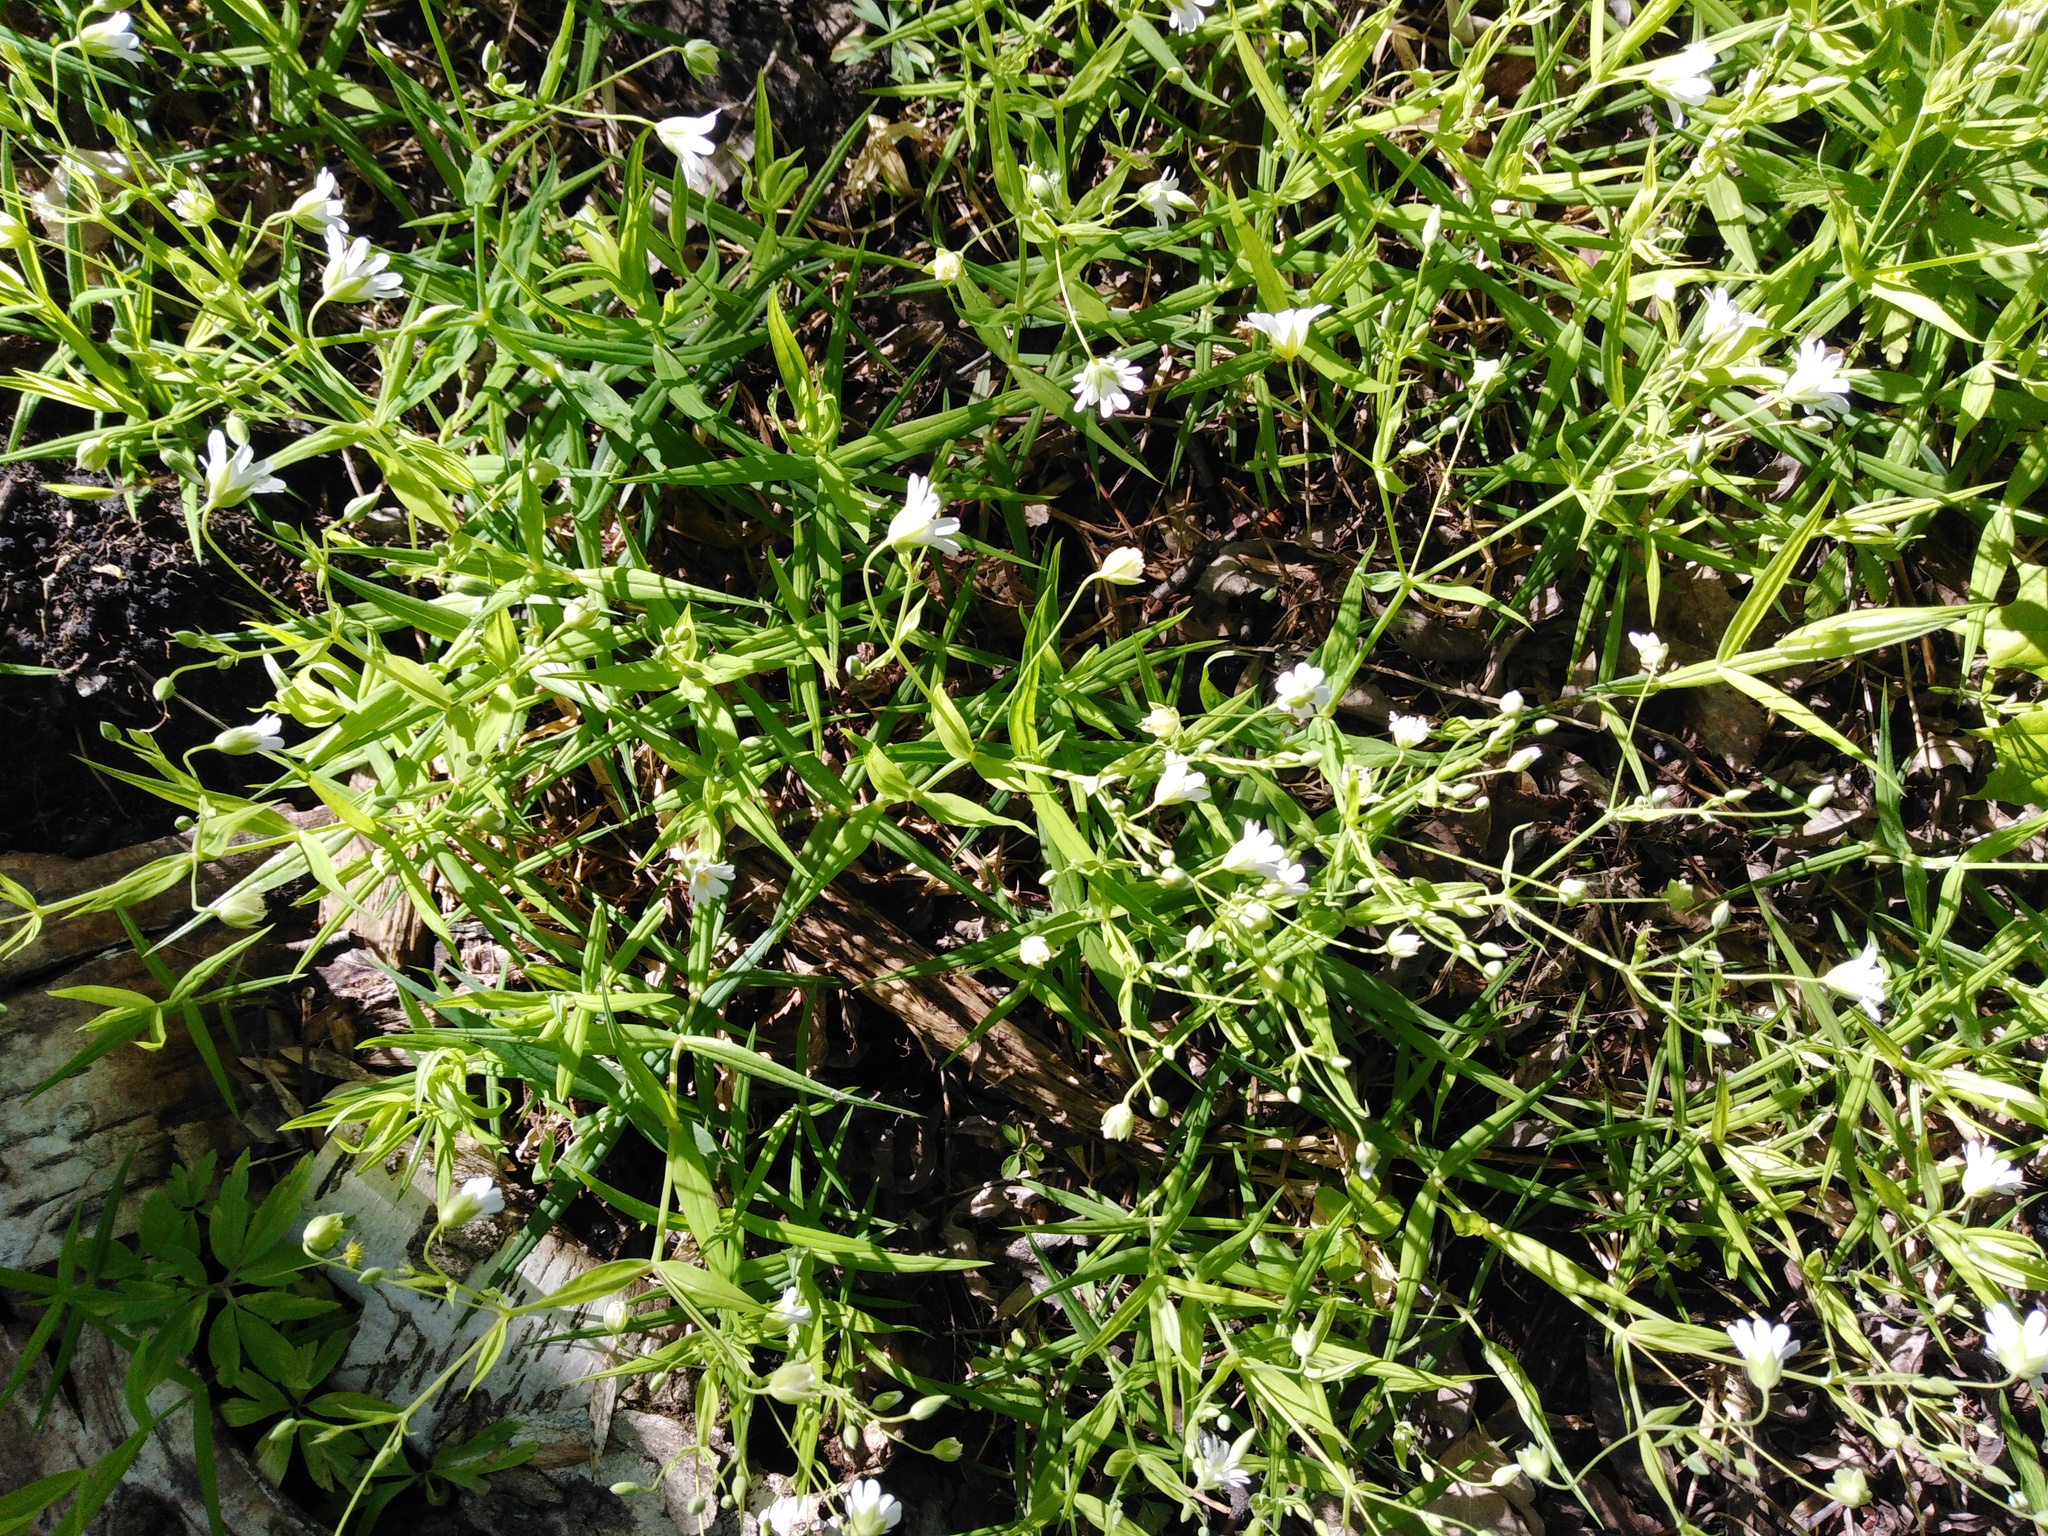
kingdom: Plantae
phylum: Tracheophyta
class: Magnoliopsida
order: Caryophyllales
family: Caryophyllaceae
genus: Rabelera
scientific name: Rabelera holostea
